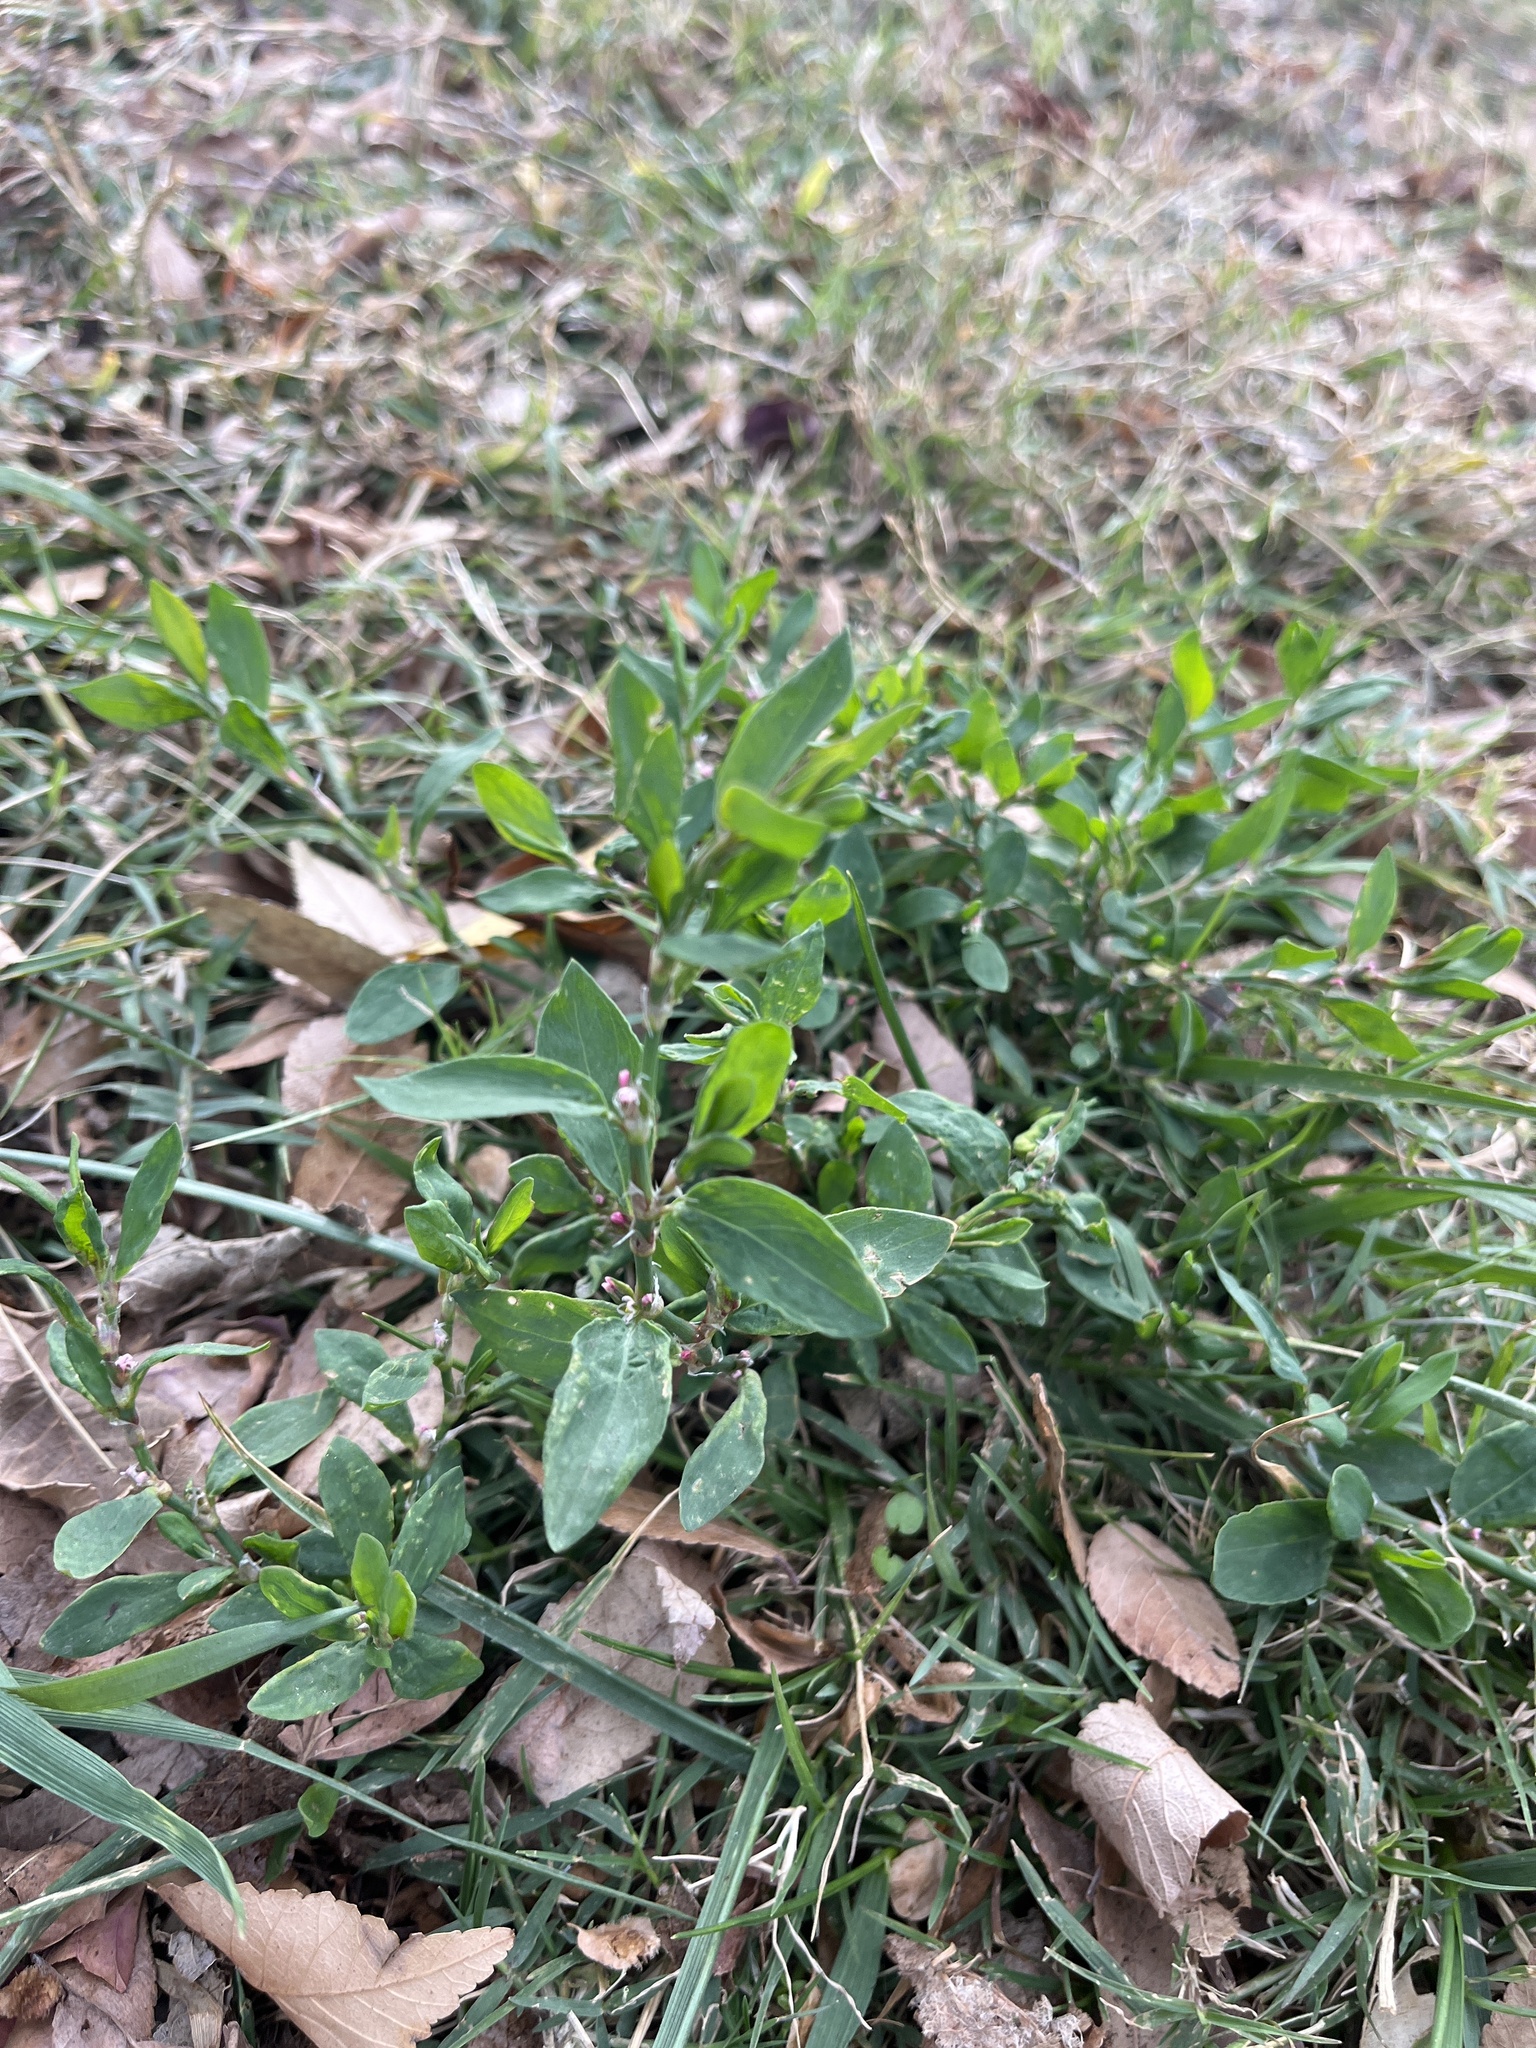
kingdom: Plantae
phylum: Tracheophyta
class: Magnoliopsida
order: Caryophyllales
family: Polygonaceae
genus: Polygonum
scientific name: Polygonum aviculare
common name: Prostrate knotweed
